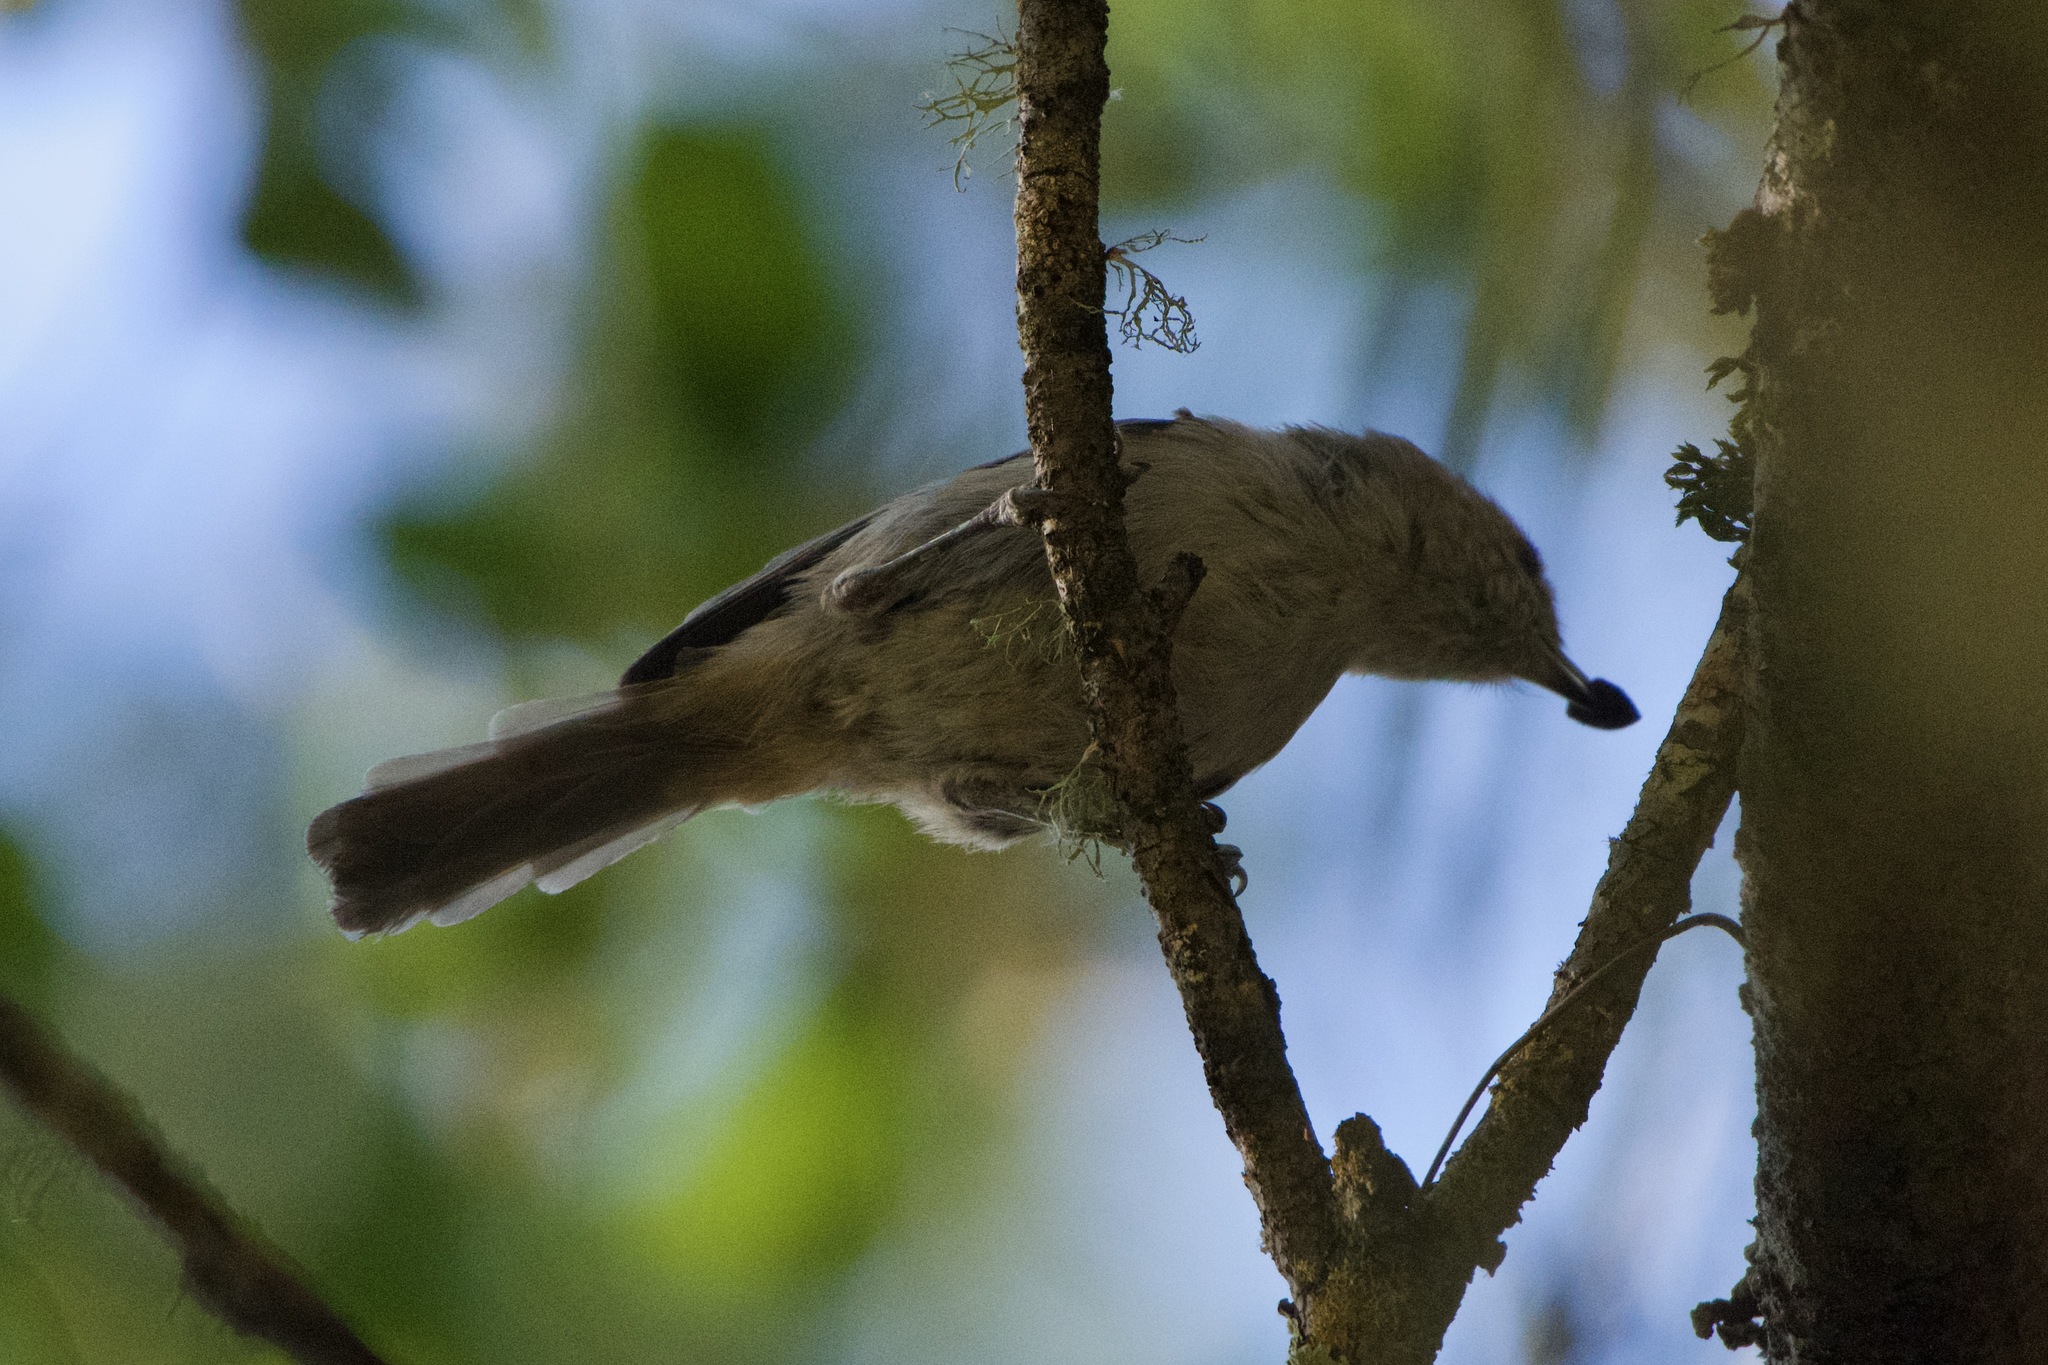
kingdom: Animalia
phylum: Chordata
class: Aves
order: Passeriformes
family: Paridae
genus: Baeolophus
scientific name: Baeolophus inornatus
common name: Oak titmouse
